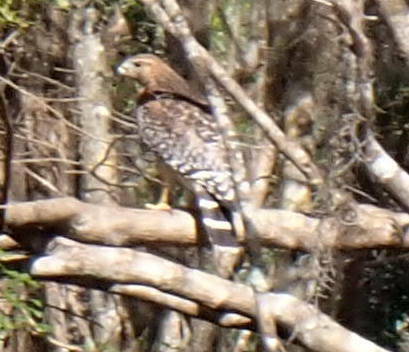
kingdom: Animalia
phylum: Chordata
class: Aves
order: Accipitriformes
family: Accipitridae
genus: Buteo
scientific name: Buteo lineatus
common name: Red-shouldered hawk
